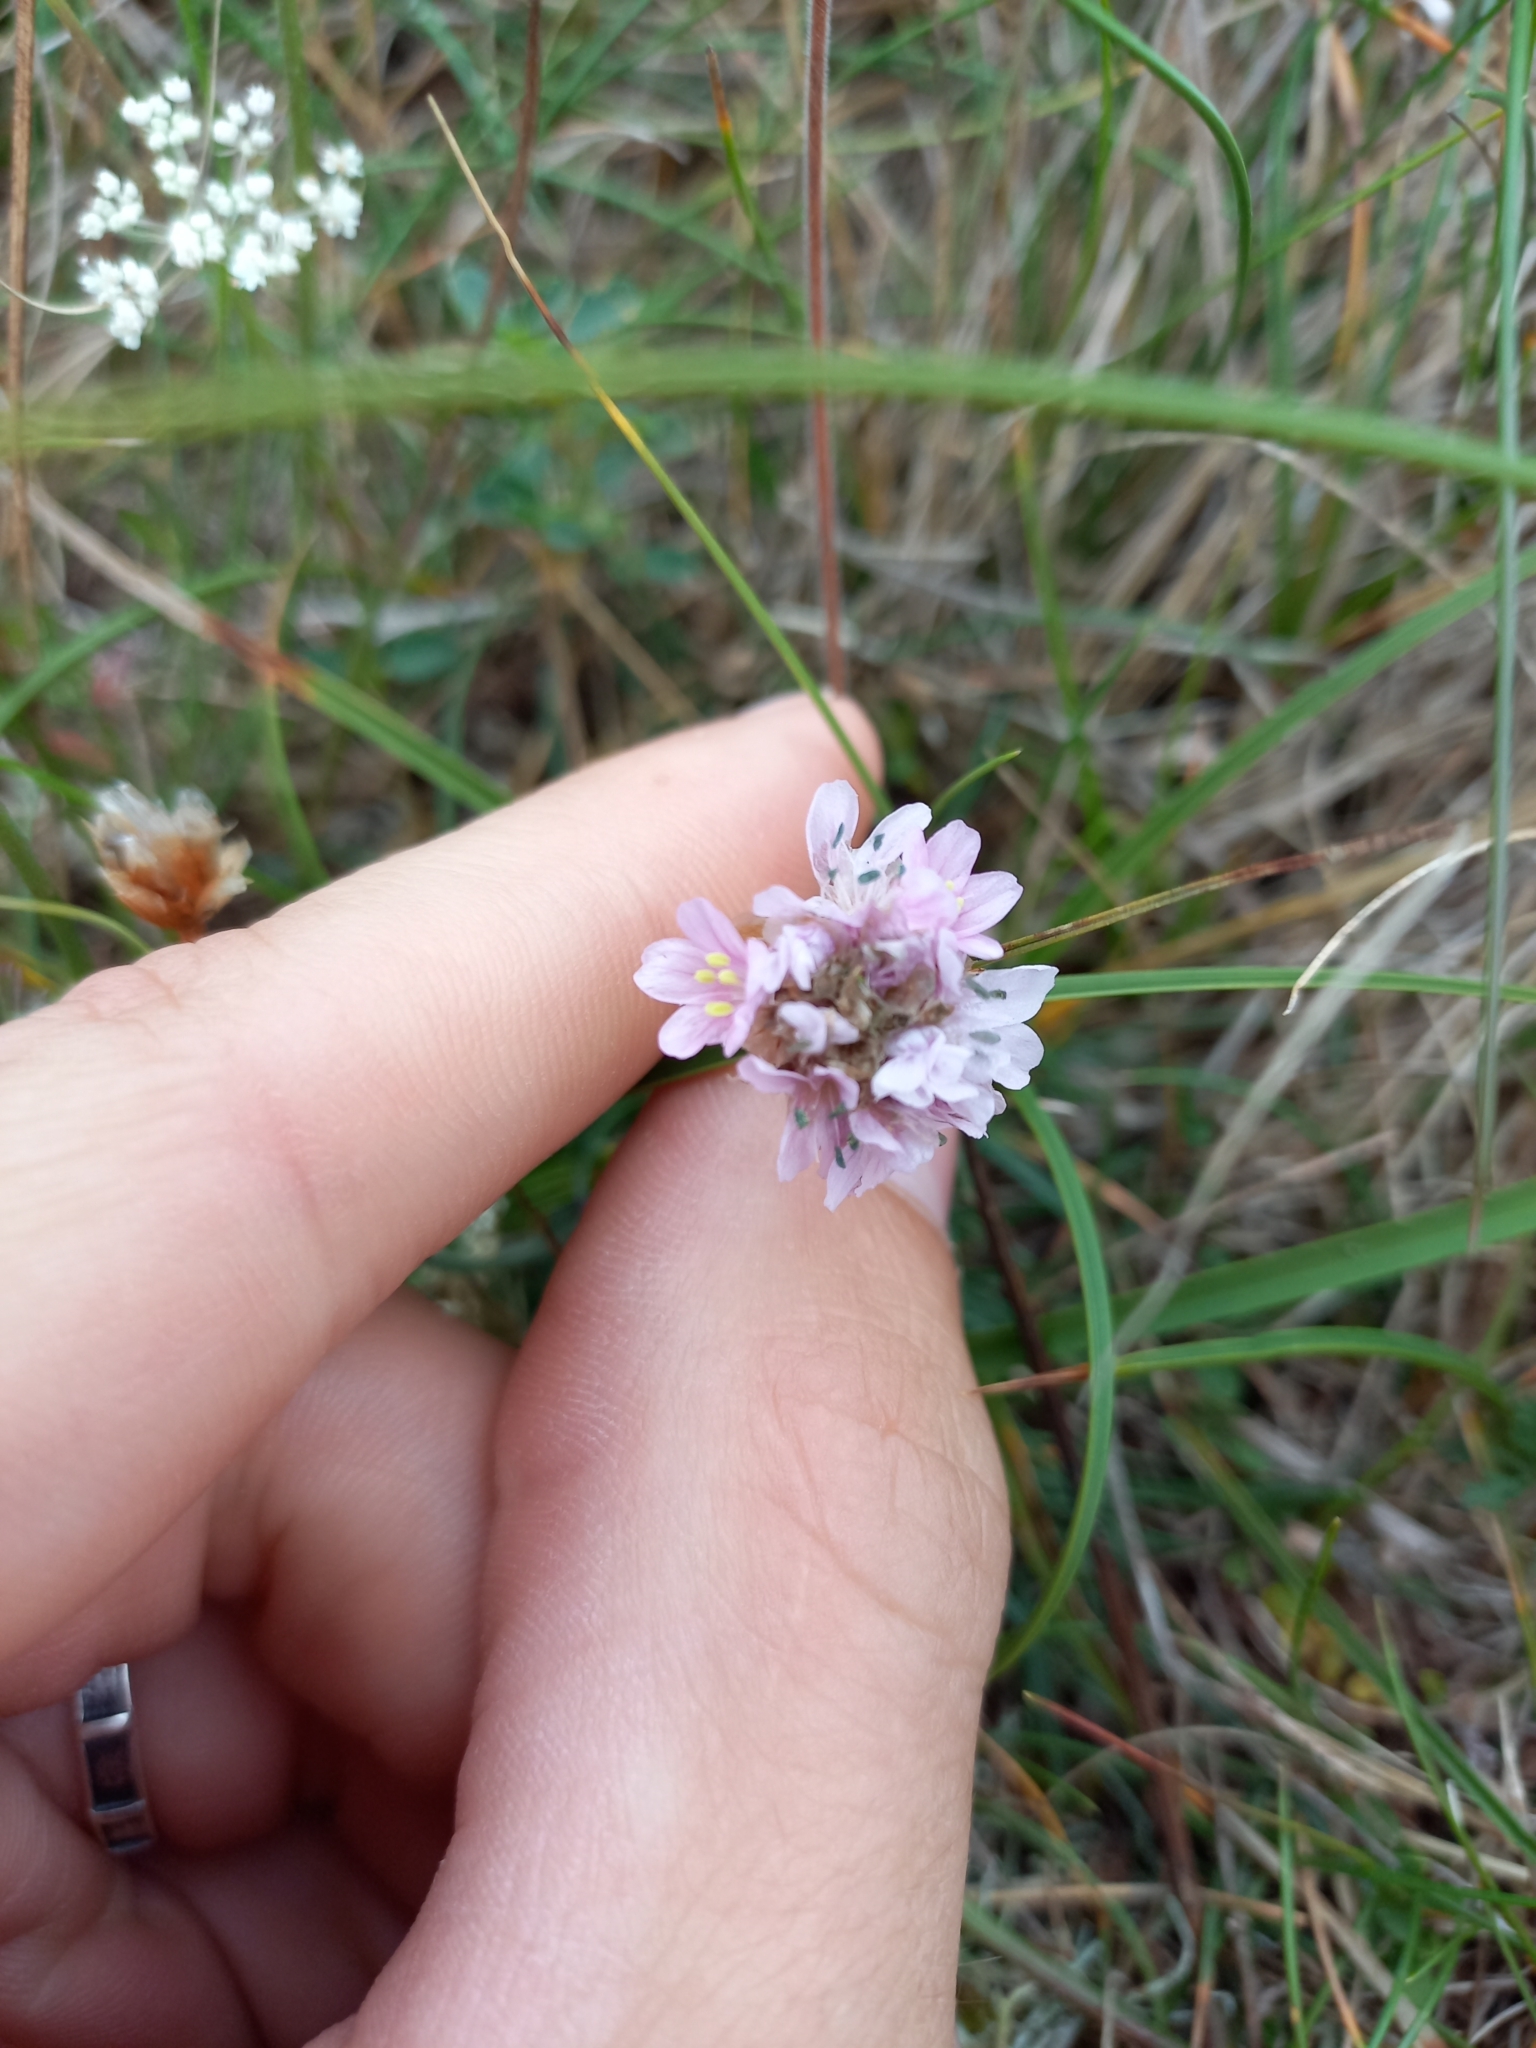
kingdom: Plantae
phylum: Tracheophyta
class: Magnoliopsida
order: Caryophyllales
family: Plumbaginaceae
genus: Armeria
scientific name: Armeria maritima
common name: Thrift
